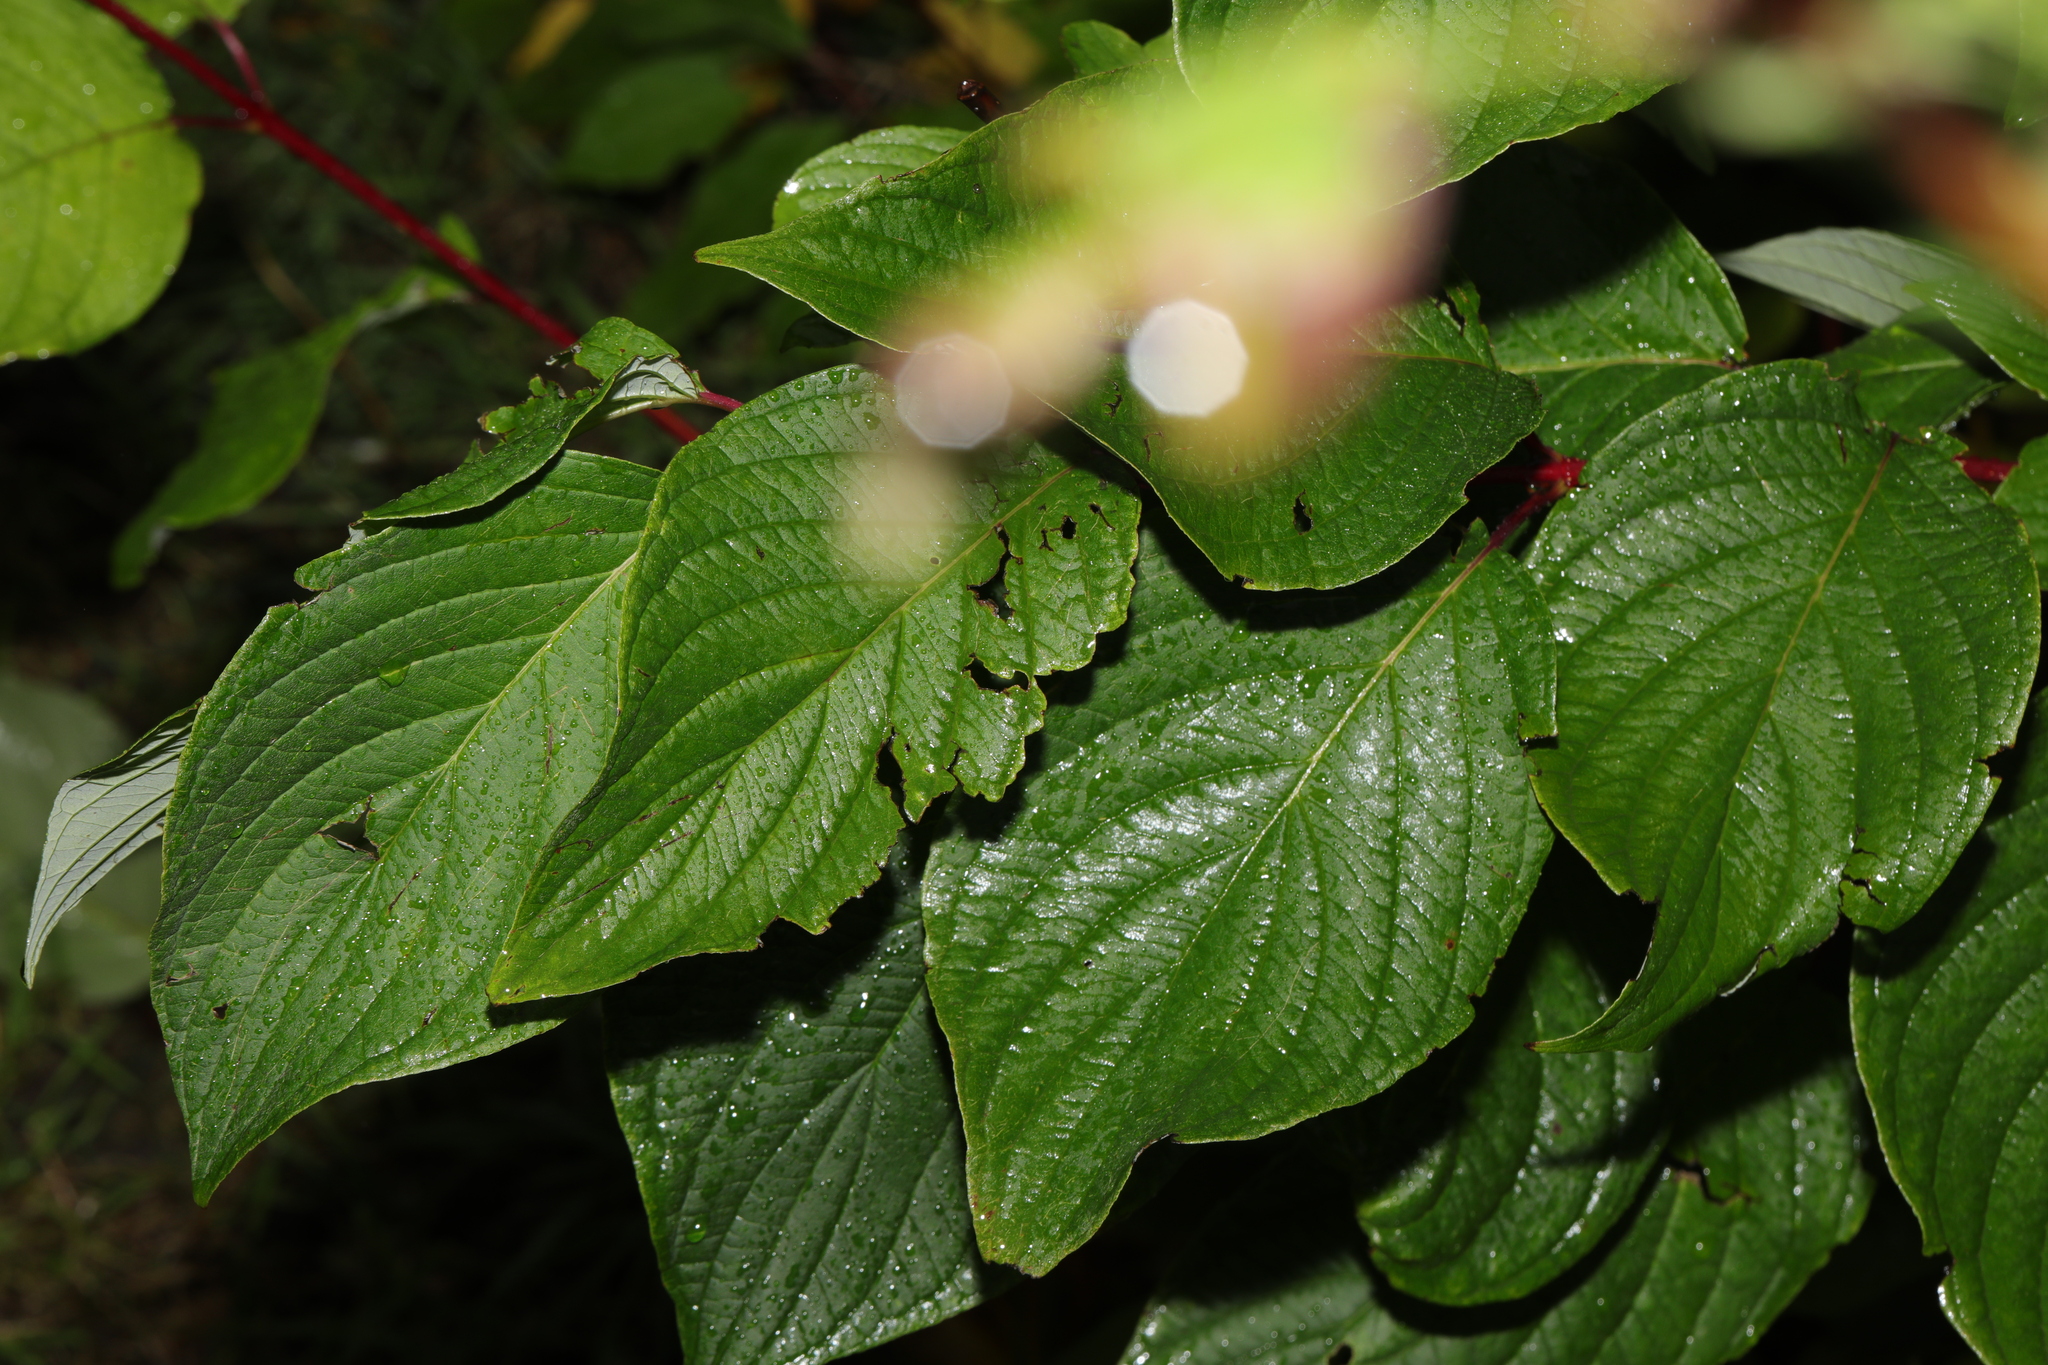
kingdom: Plantae
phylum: Tracheophyta
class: Magnoliopsida
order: Cornales
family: Cornaceae
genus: Cornus
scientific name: Cornus sericea
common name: Red-osier dogwood
